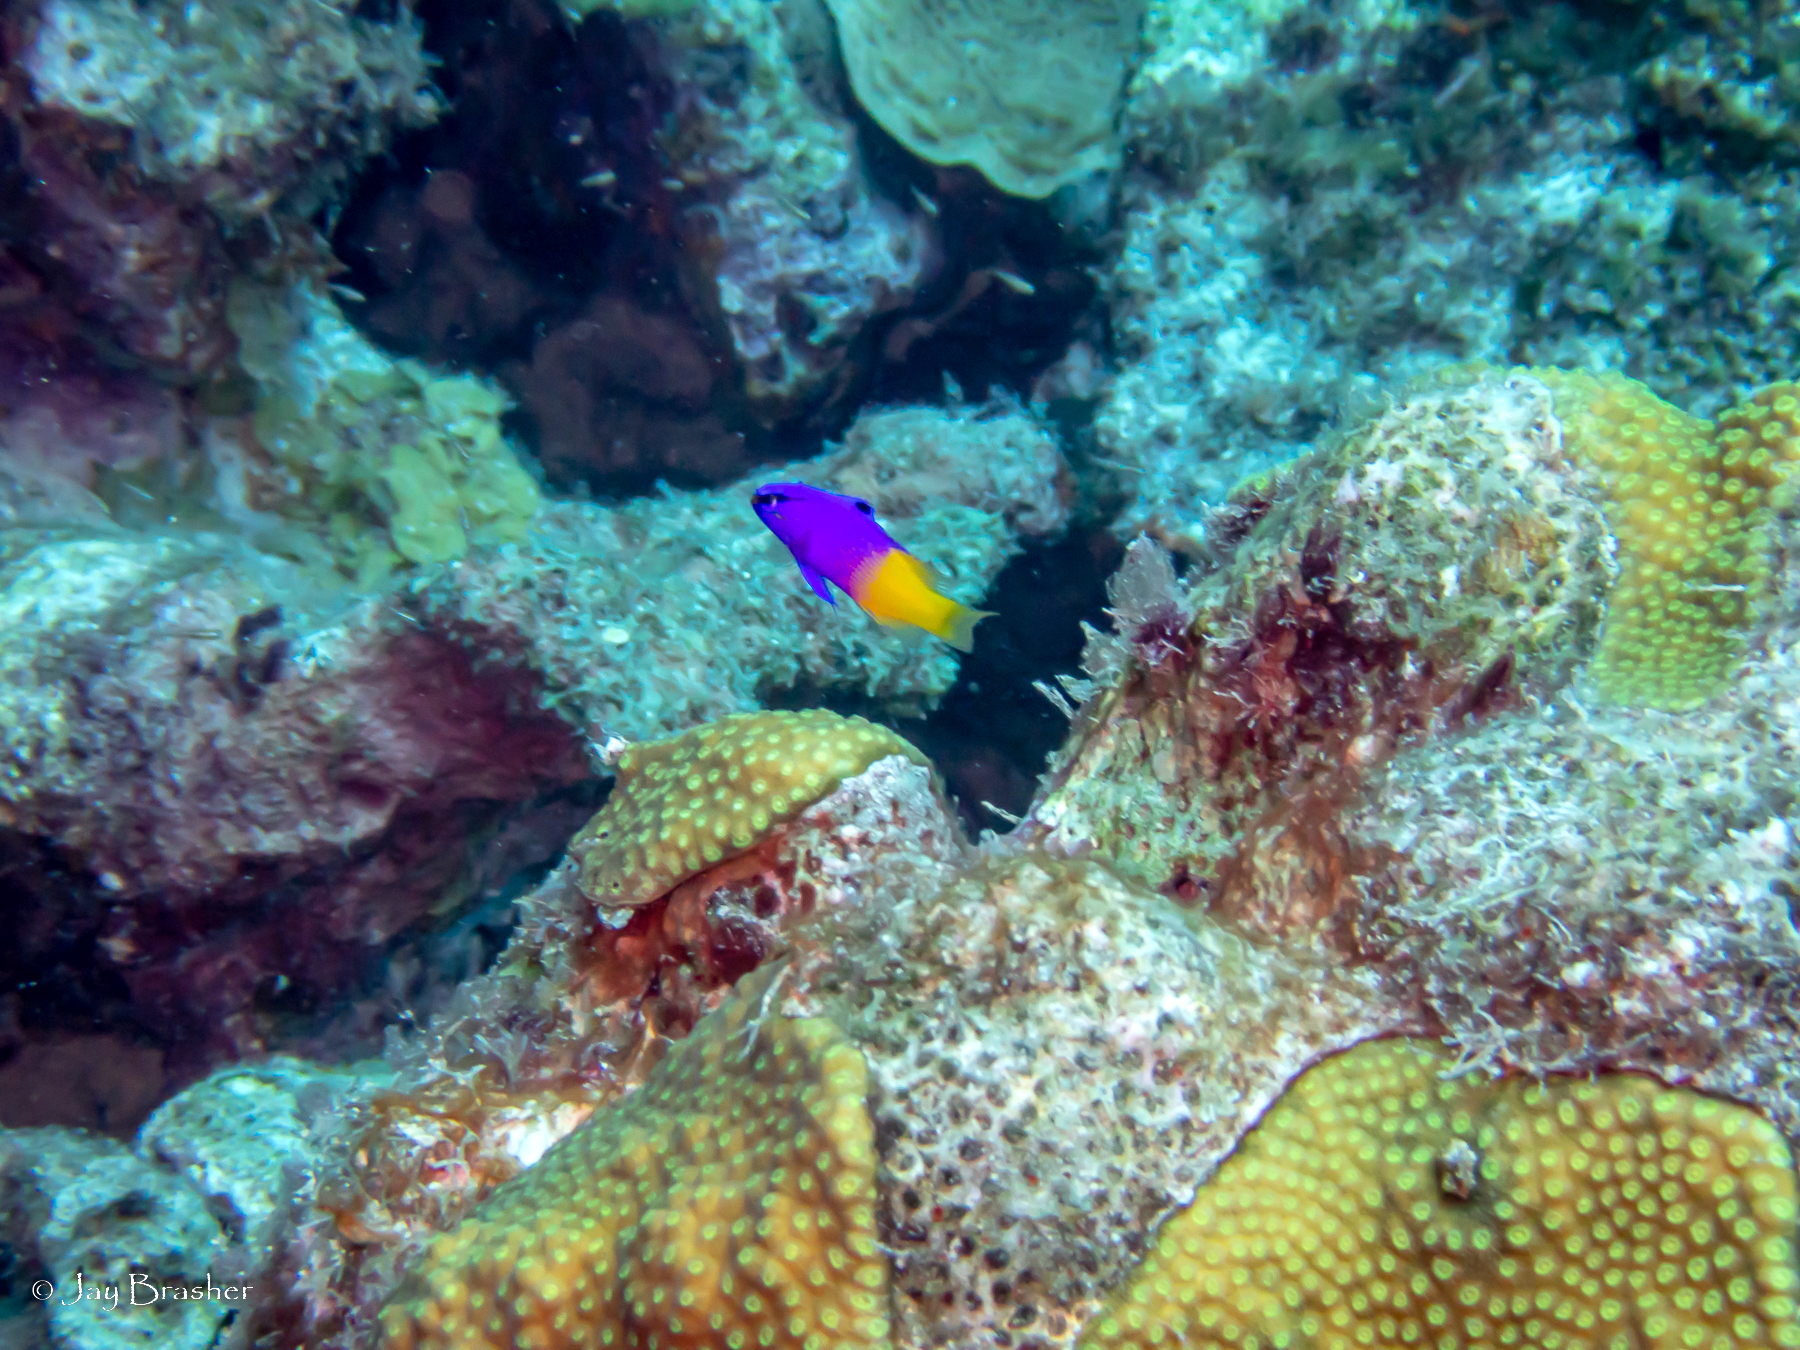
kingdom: Animalia
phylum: Chordata
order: Perciformes
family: Grammatidae
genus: Gramma
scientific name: Gramma loreto
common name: Fairy basslet
